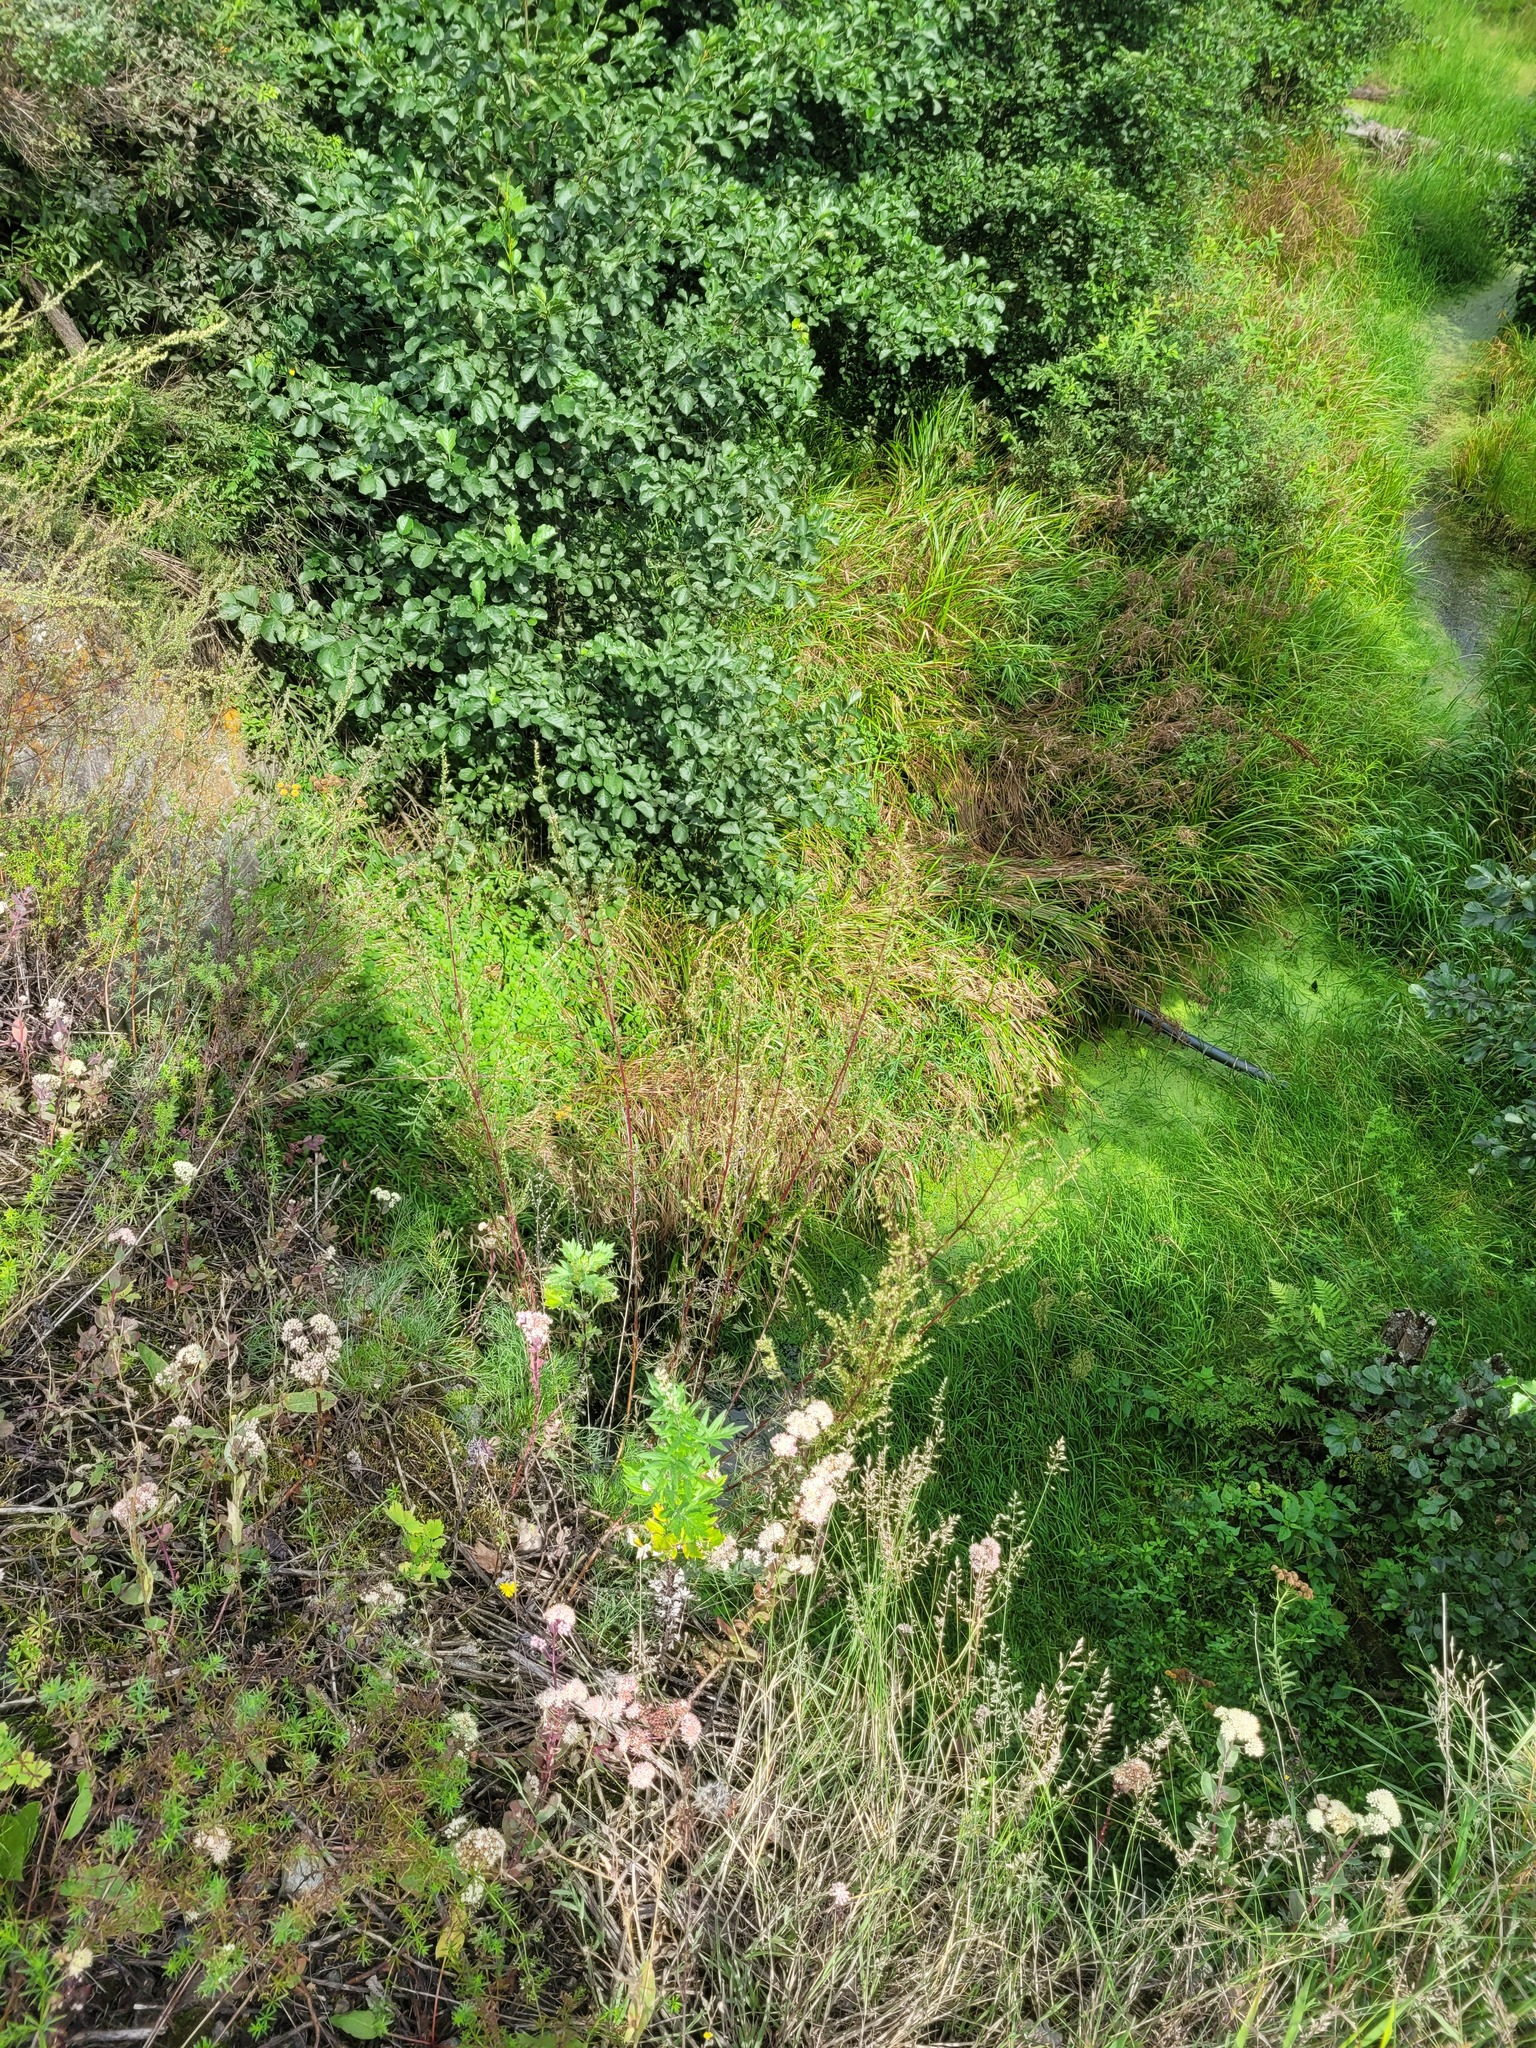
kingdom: Plantae
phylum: Tracheophyta
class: Magnoliopsida
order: Asterales
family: Asteraceae
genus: Artemisia
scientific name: Artemisia campestris
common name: Field wormwood
